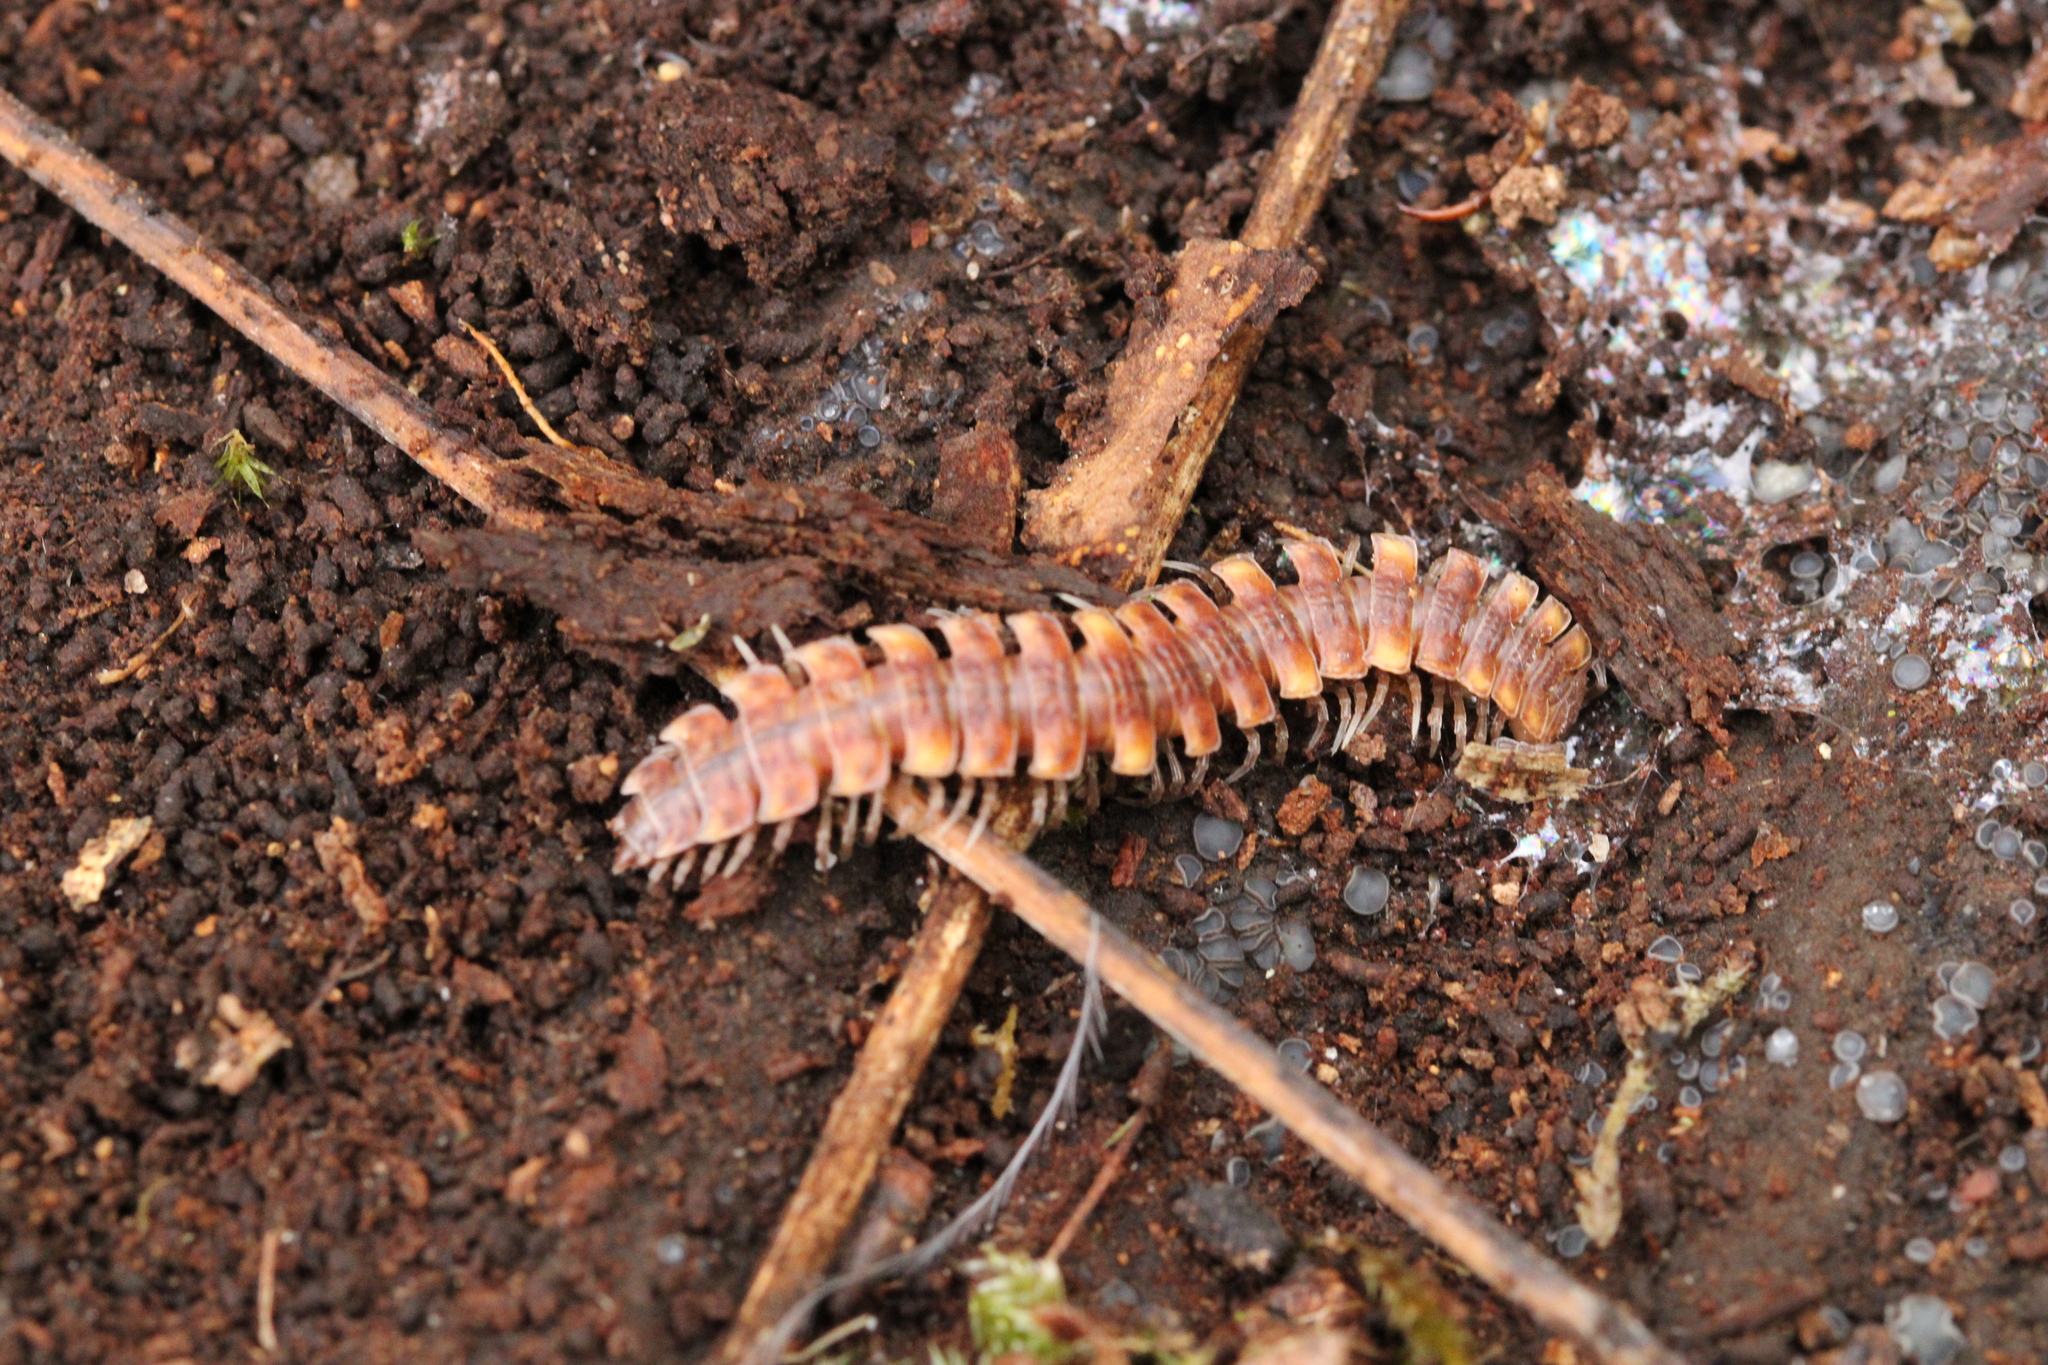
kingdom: Animalia
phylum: Arthropoda
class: Diplopoda
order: Polydesmida
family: Polydesmidae
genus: Polydesmus
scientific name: Polydesmus complanatus
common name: Flat-backed millipede
